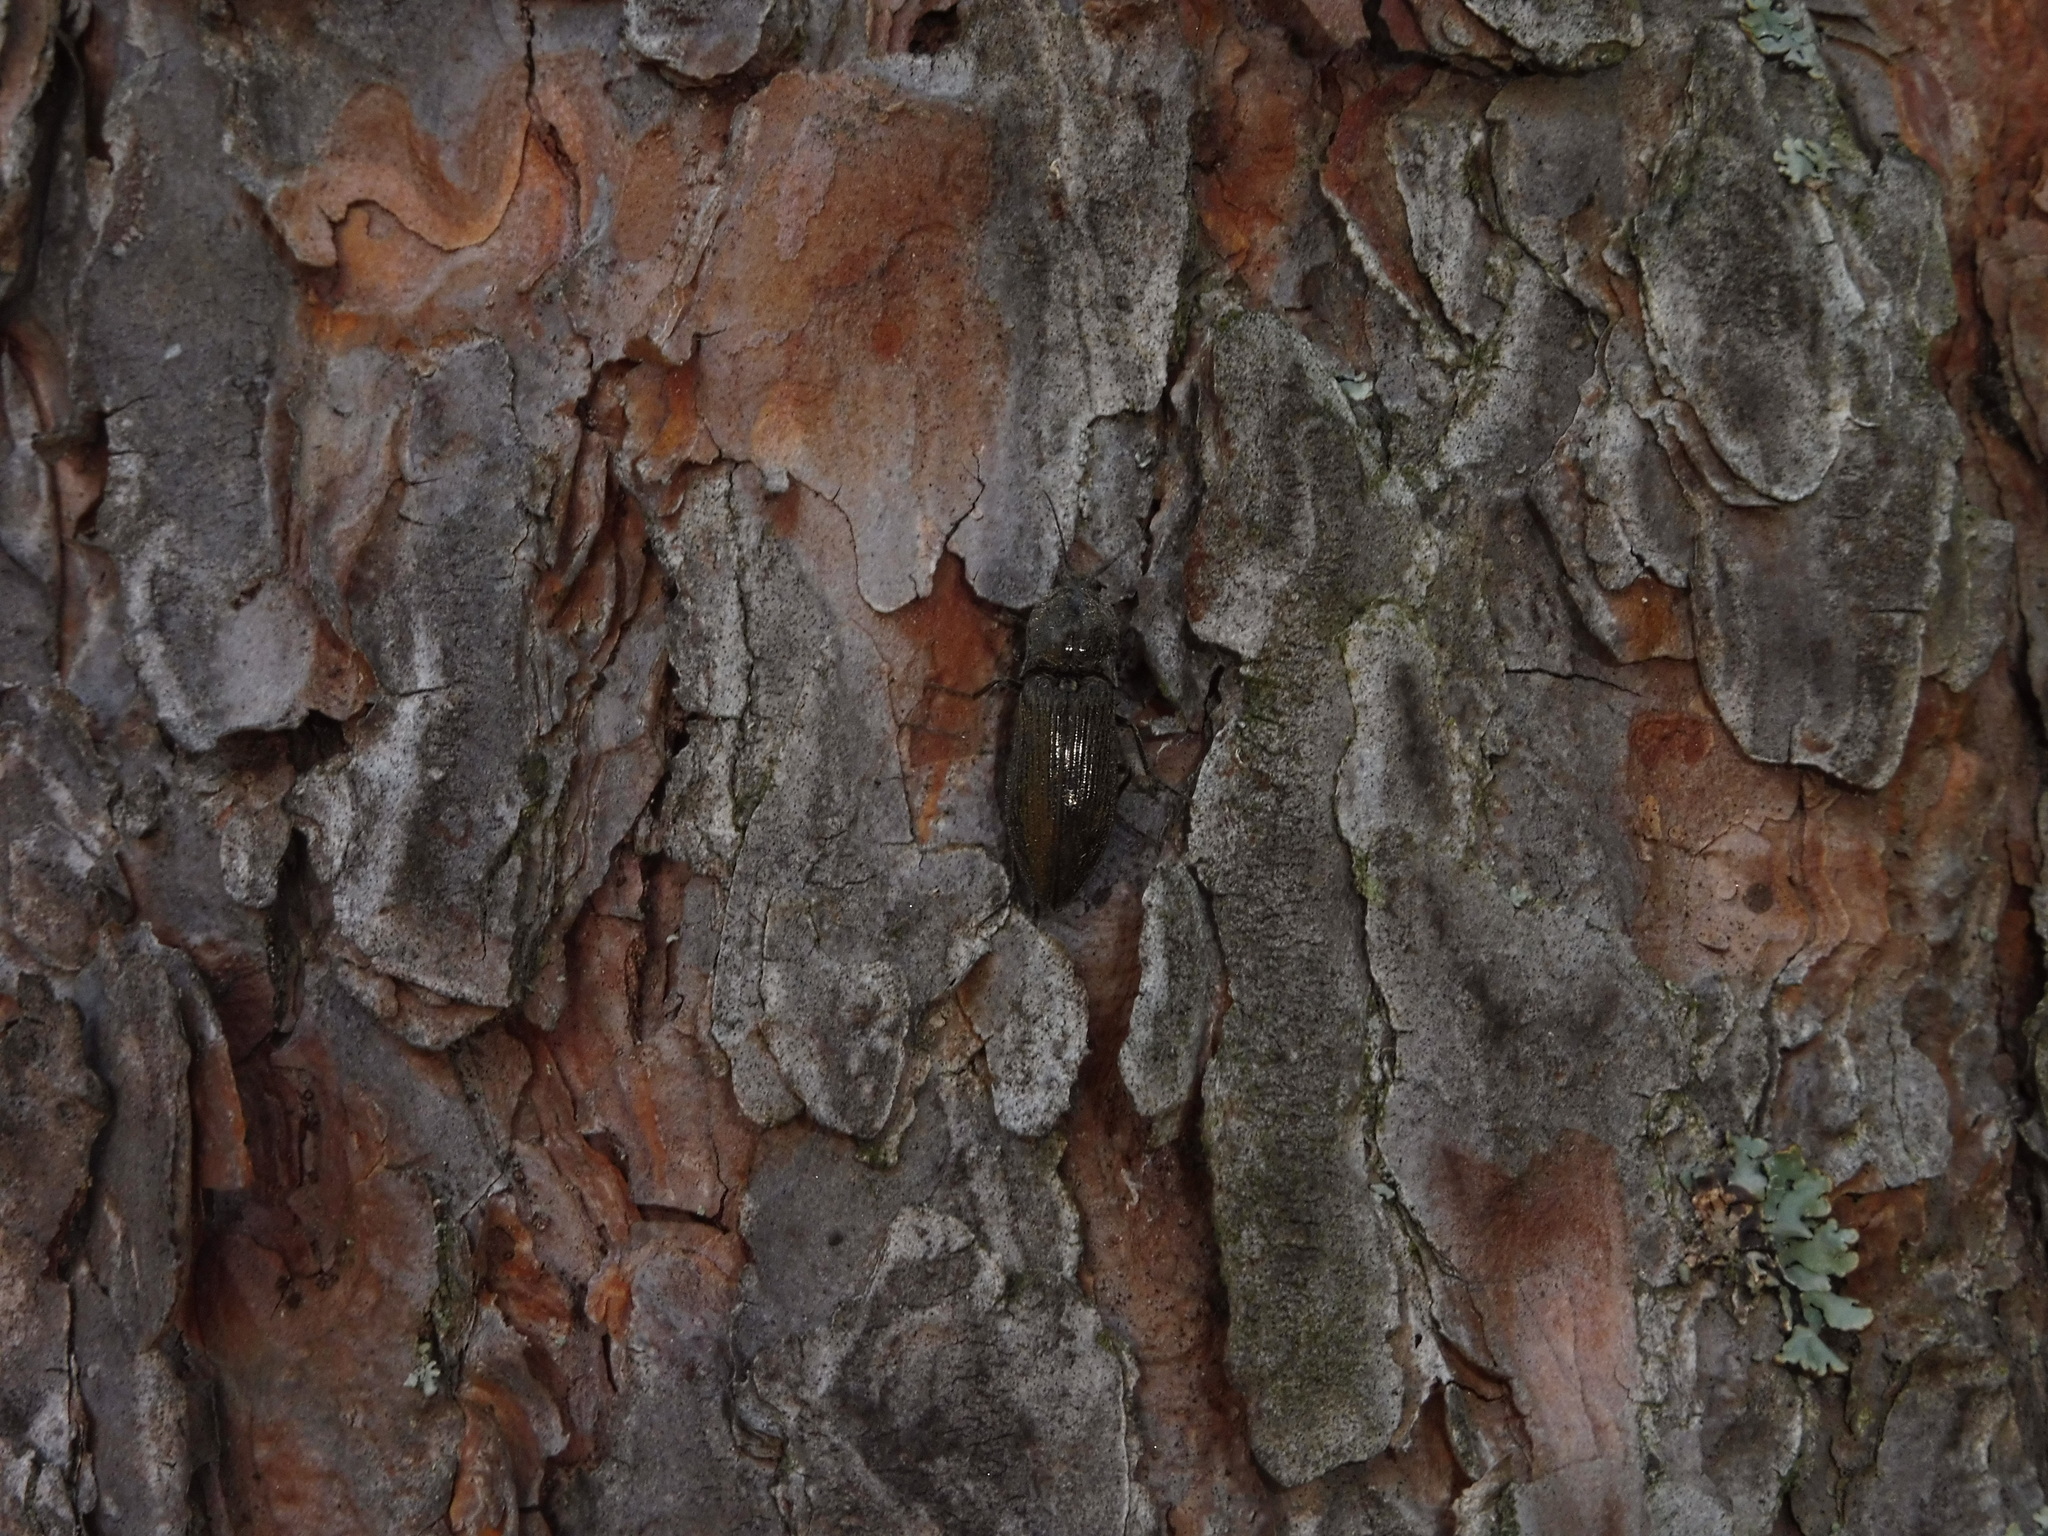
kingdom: Animalia
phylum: Arthropoda
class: Insecta
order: Coleoptera
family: Elateridae
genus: Paraphotistus
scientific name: Paraphotistus impressus
